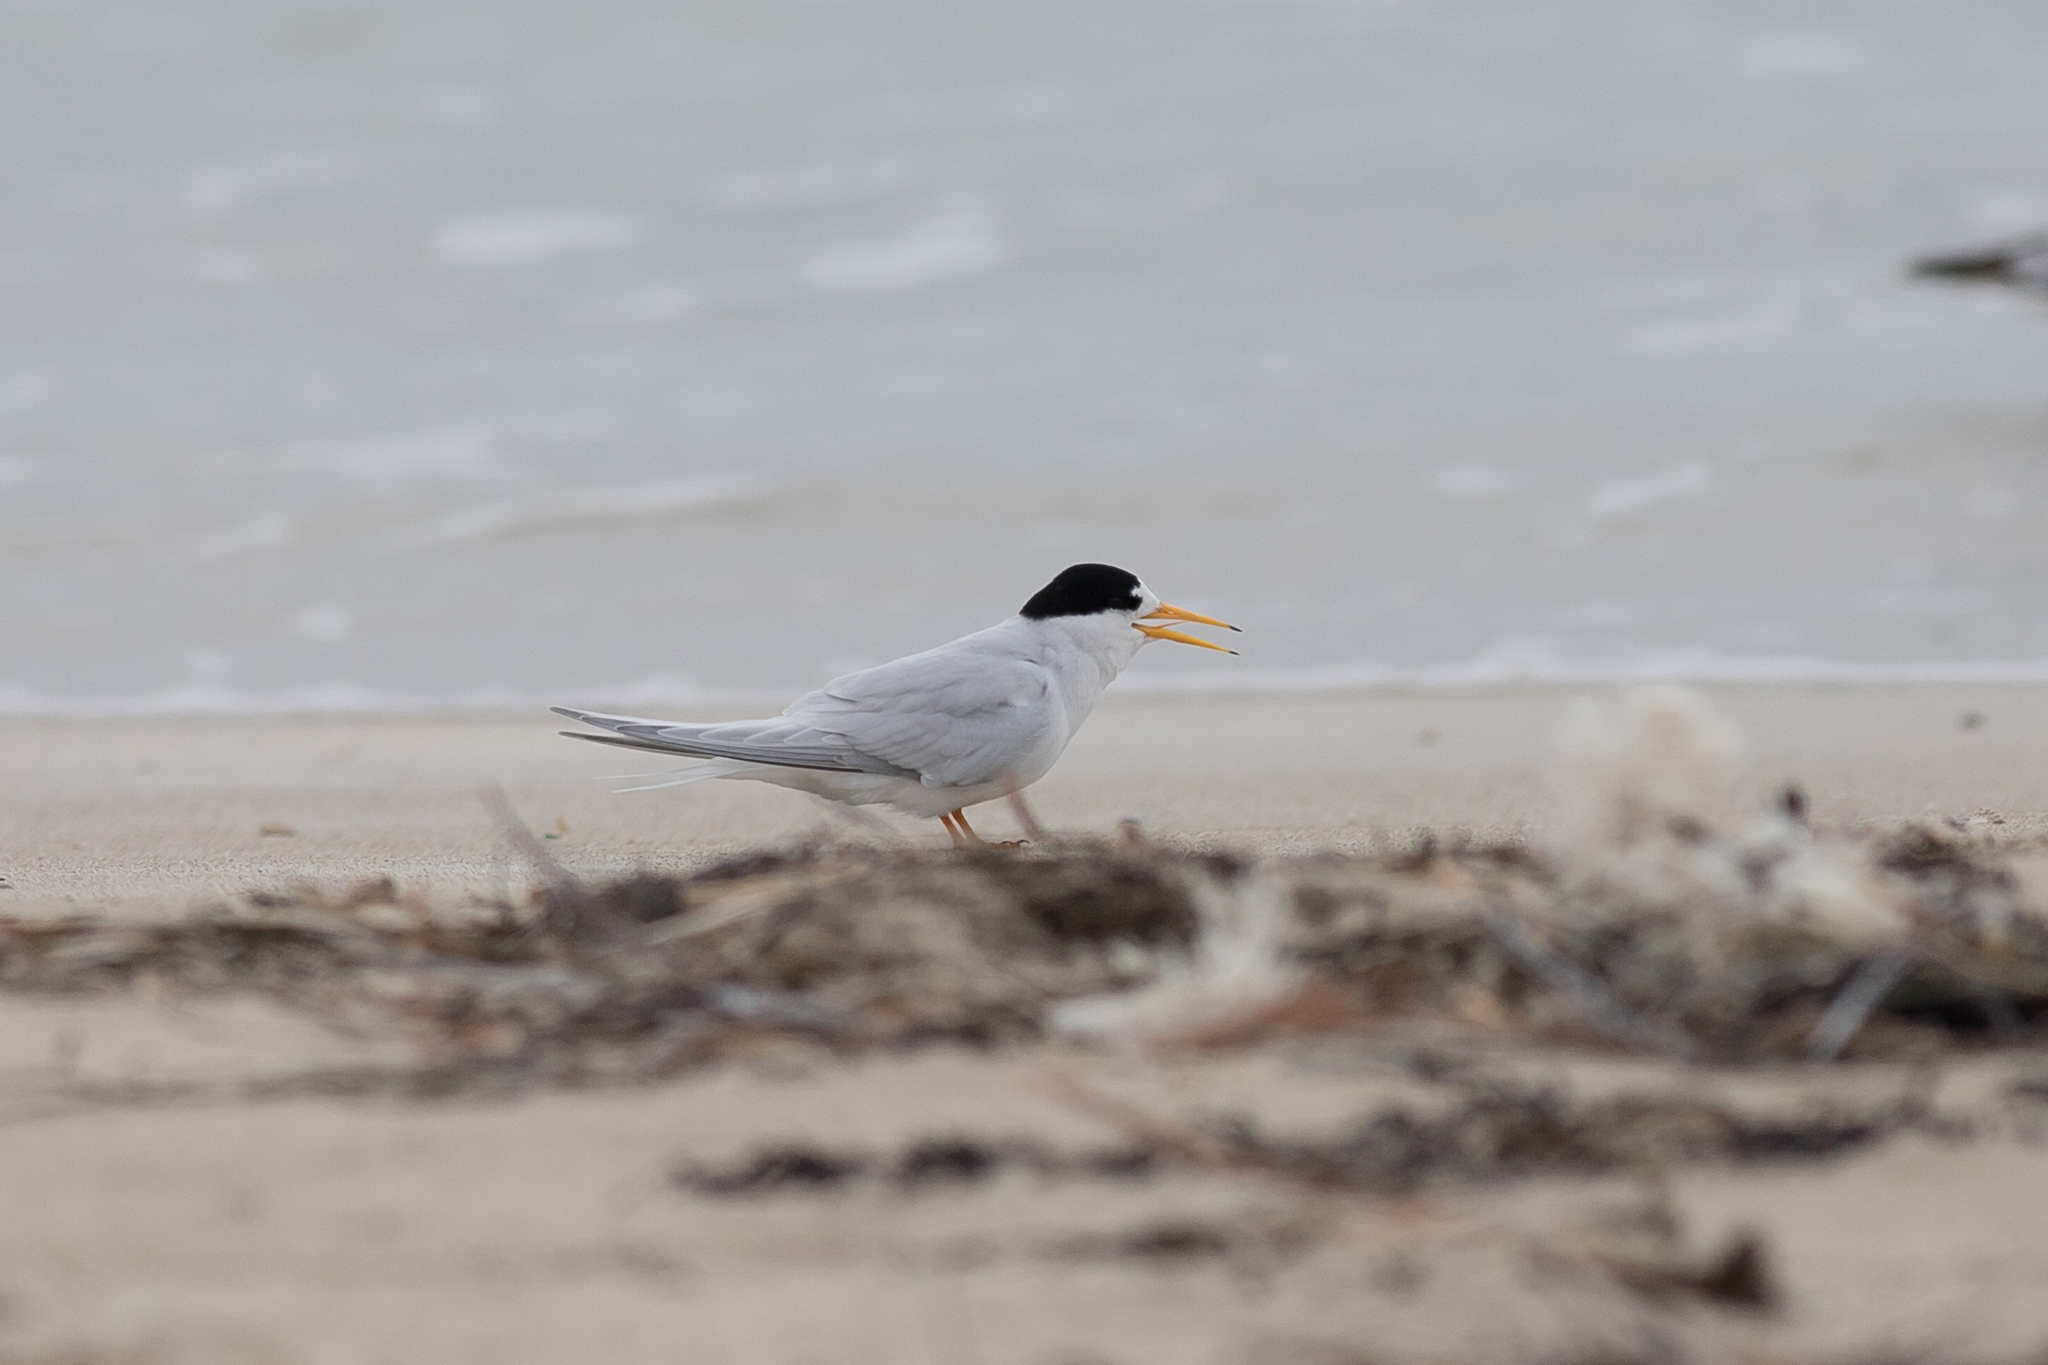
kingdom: Animalia
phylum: Chordata
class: Aves
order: Charadriiformes
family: Laridae
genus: Sternula
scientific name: Sternula nereis
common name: Fairy tern
